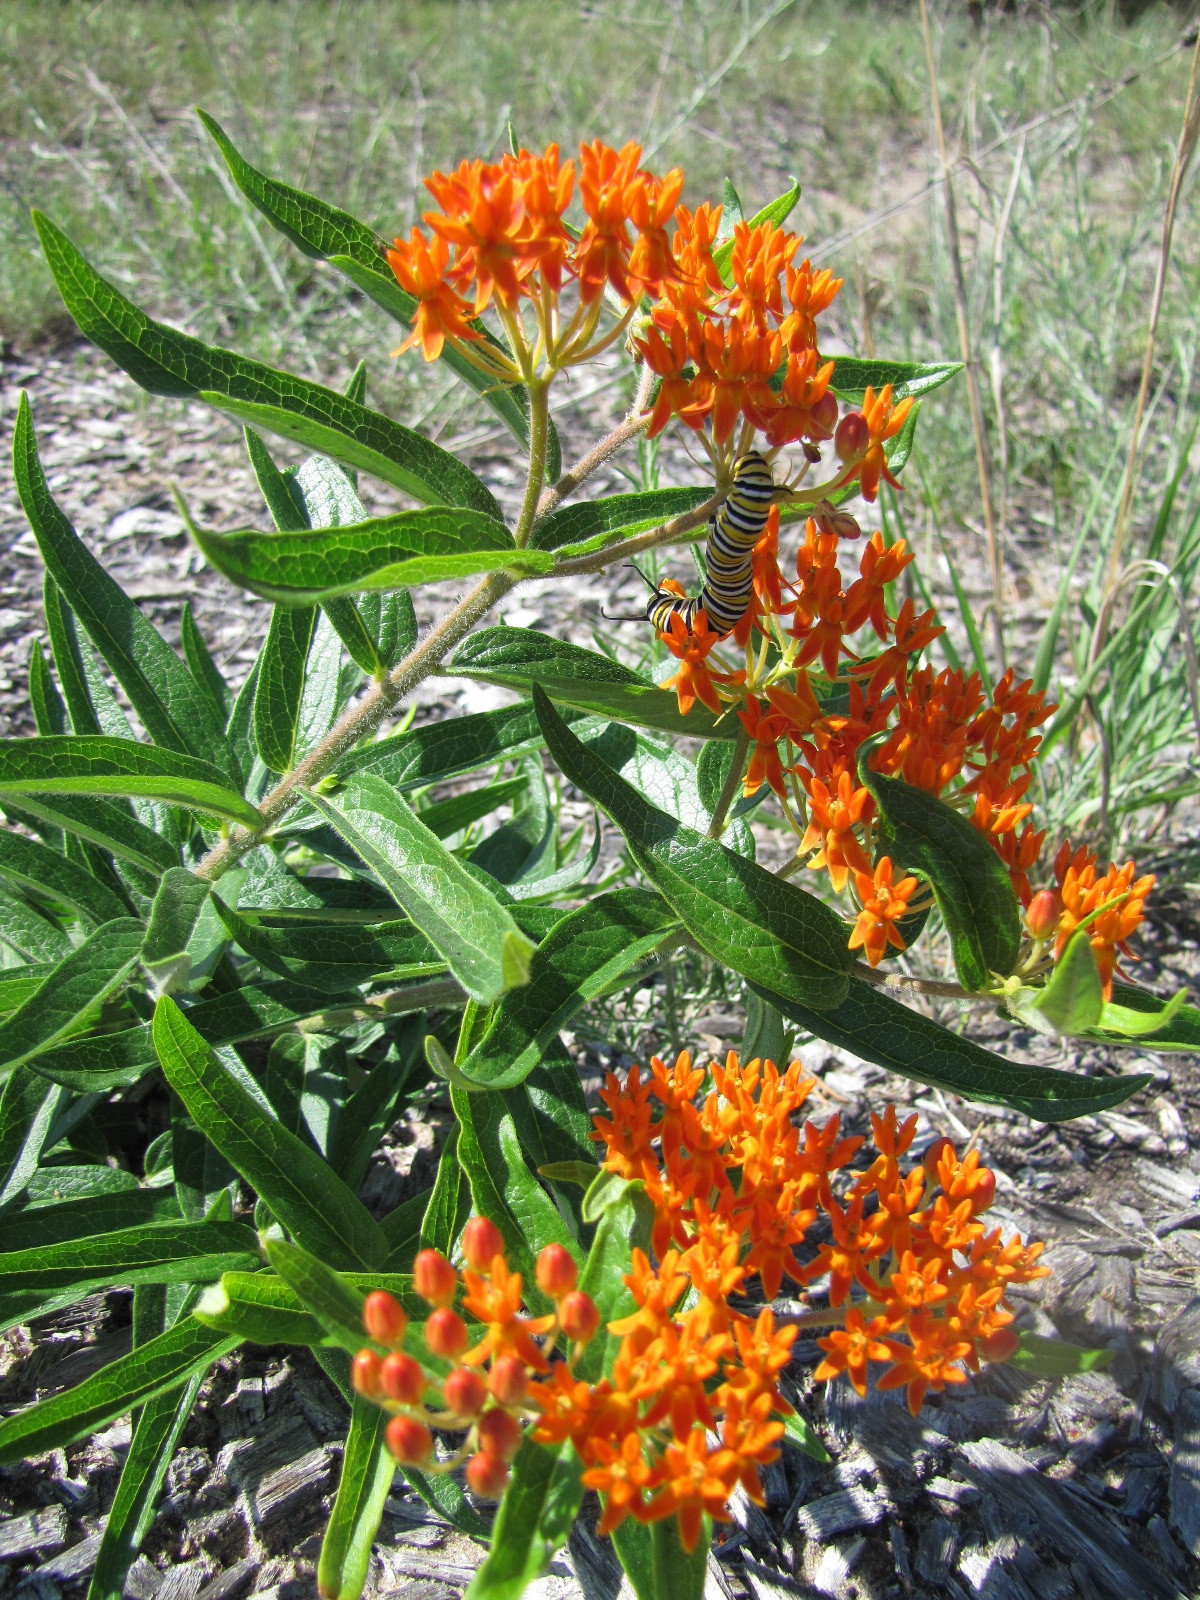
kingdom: Animalia
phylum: Arthropoda
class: Insecta
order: Lepidoptera
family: Nymphalidae
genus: Danaus
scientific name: Danaus plexippus
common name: Monarch
